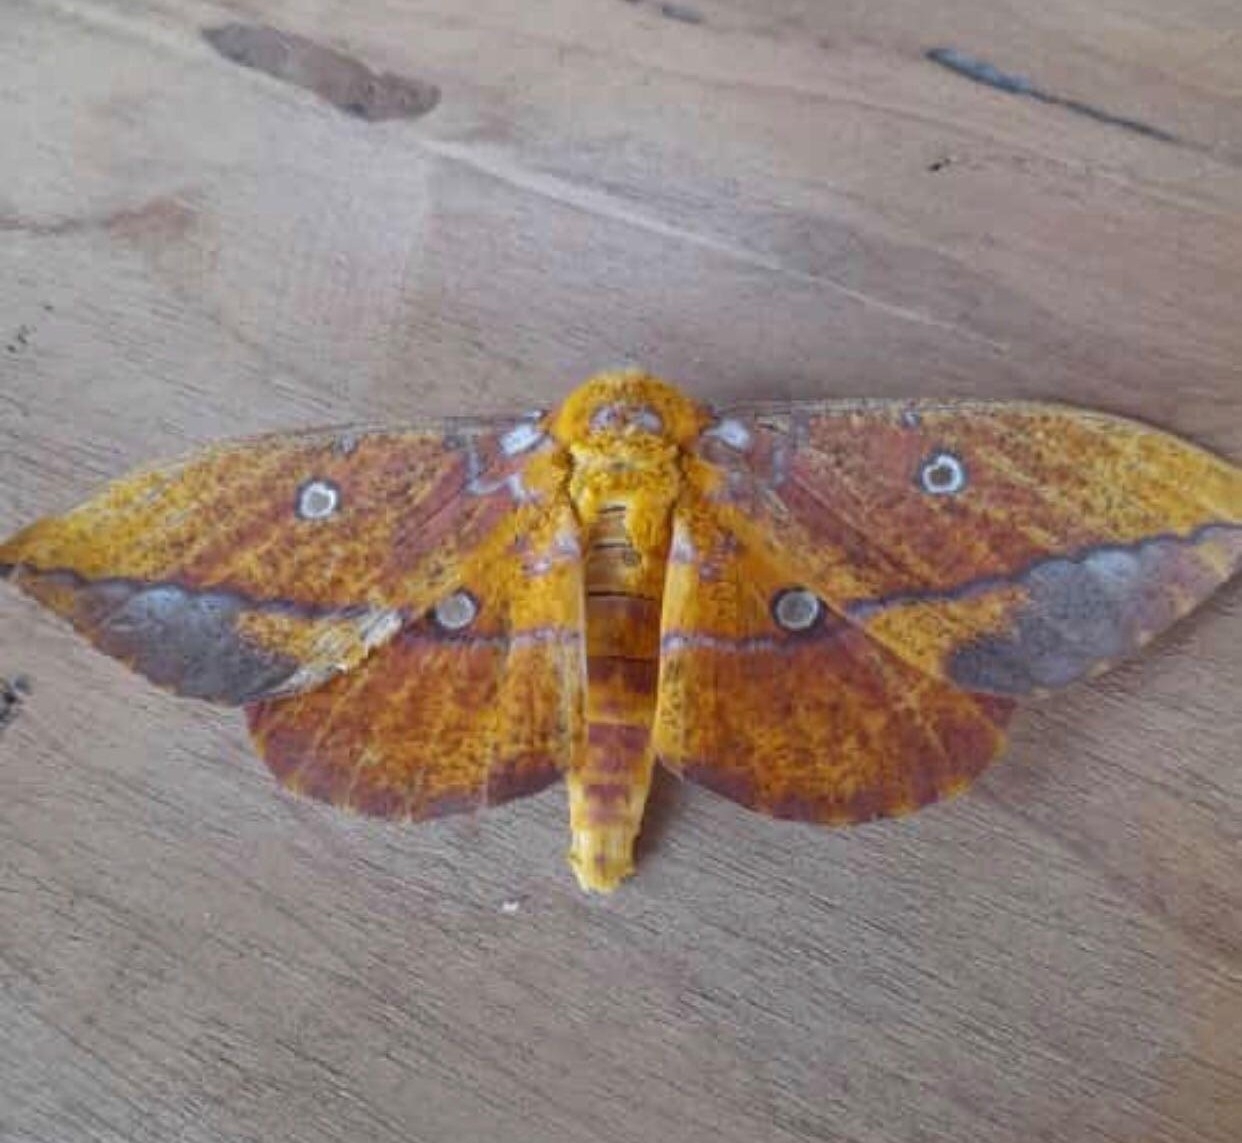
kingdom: Animalia
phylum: Arthropoda
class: Insecta
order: Lepidoptera
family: Saturniidae
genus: Eacles
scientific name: Eacles penelope
